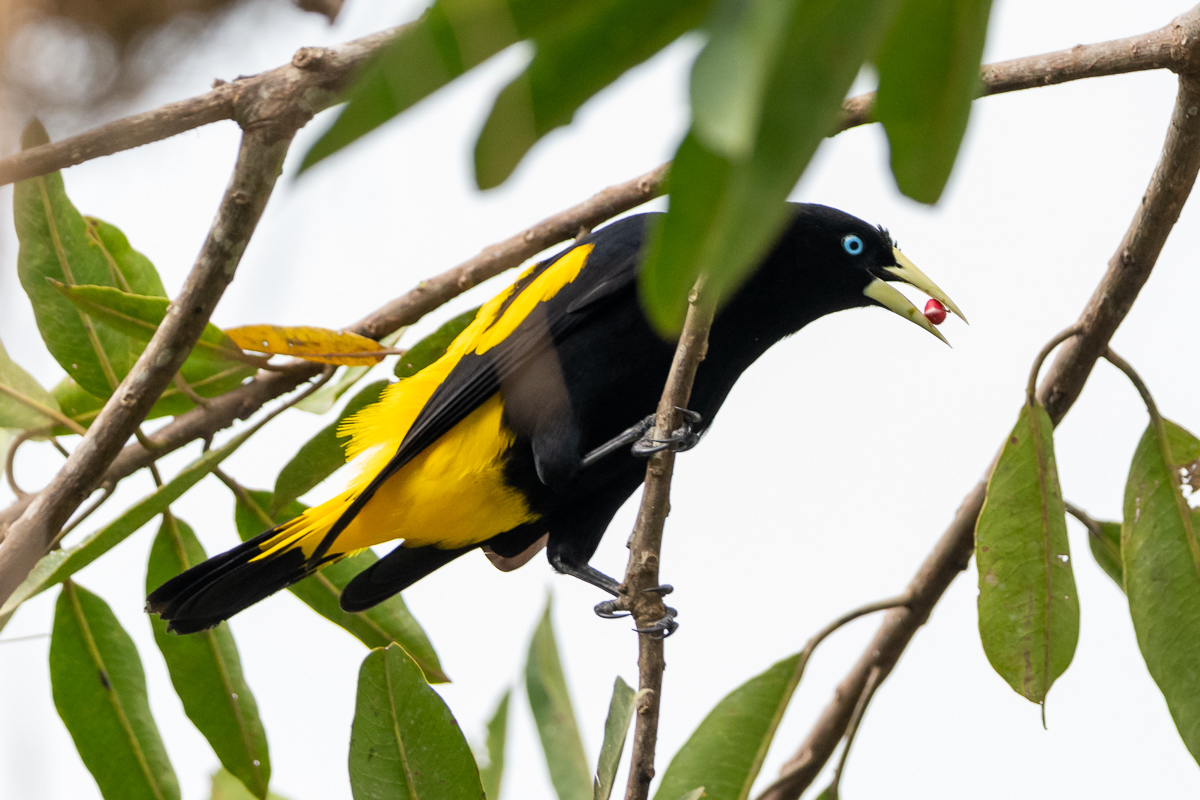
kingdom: Animalia
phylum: Chordata
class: Aves
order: Passeriformes
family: Icteridae
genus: Cacicus
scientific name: Cacicus cela
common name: Yellow-rumped cacique
